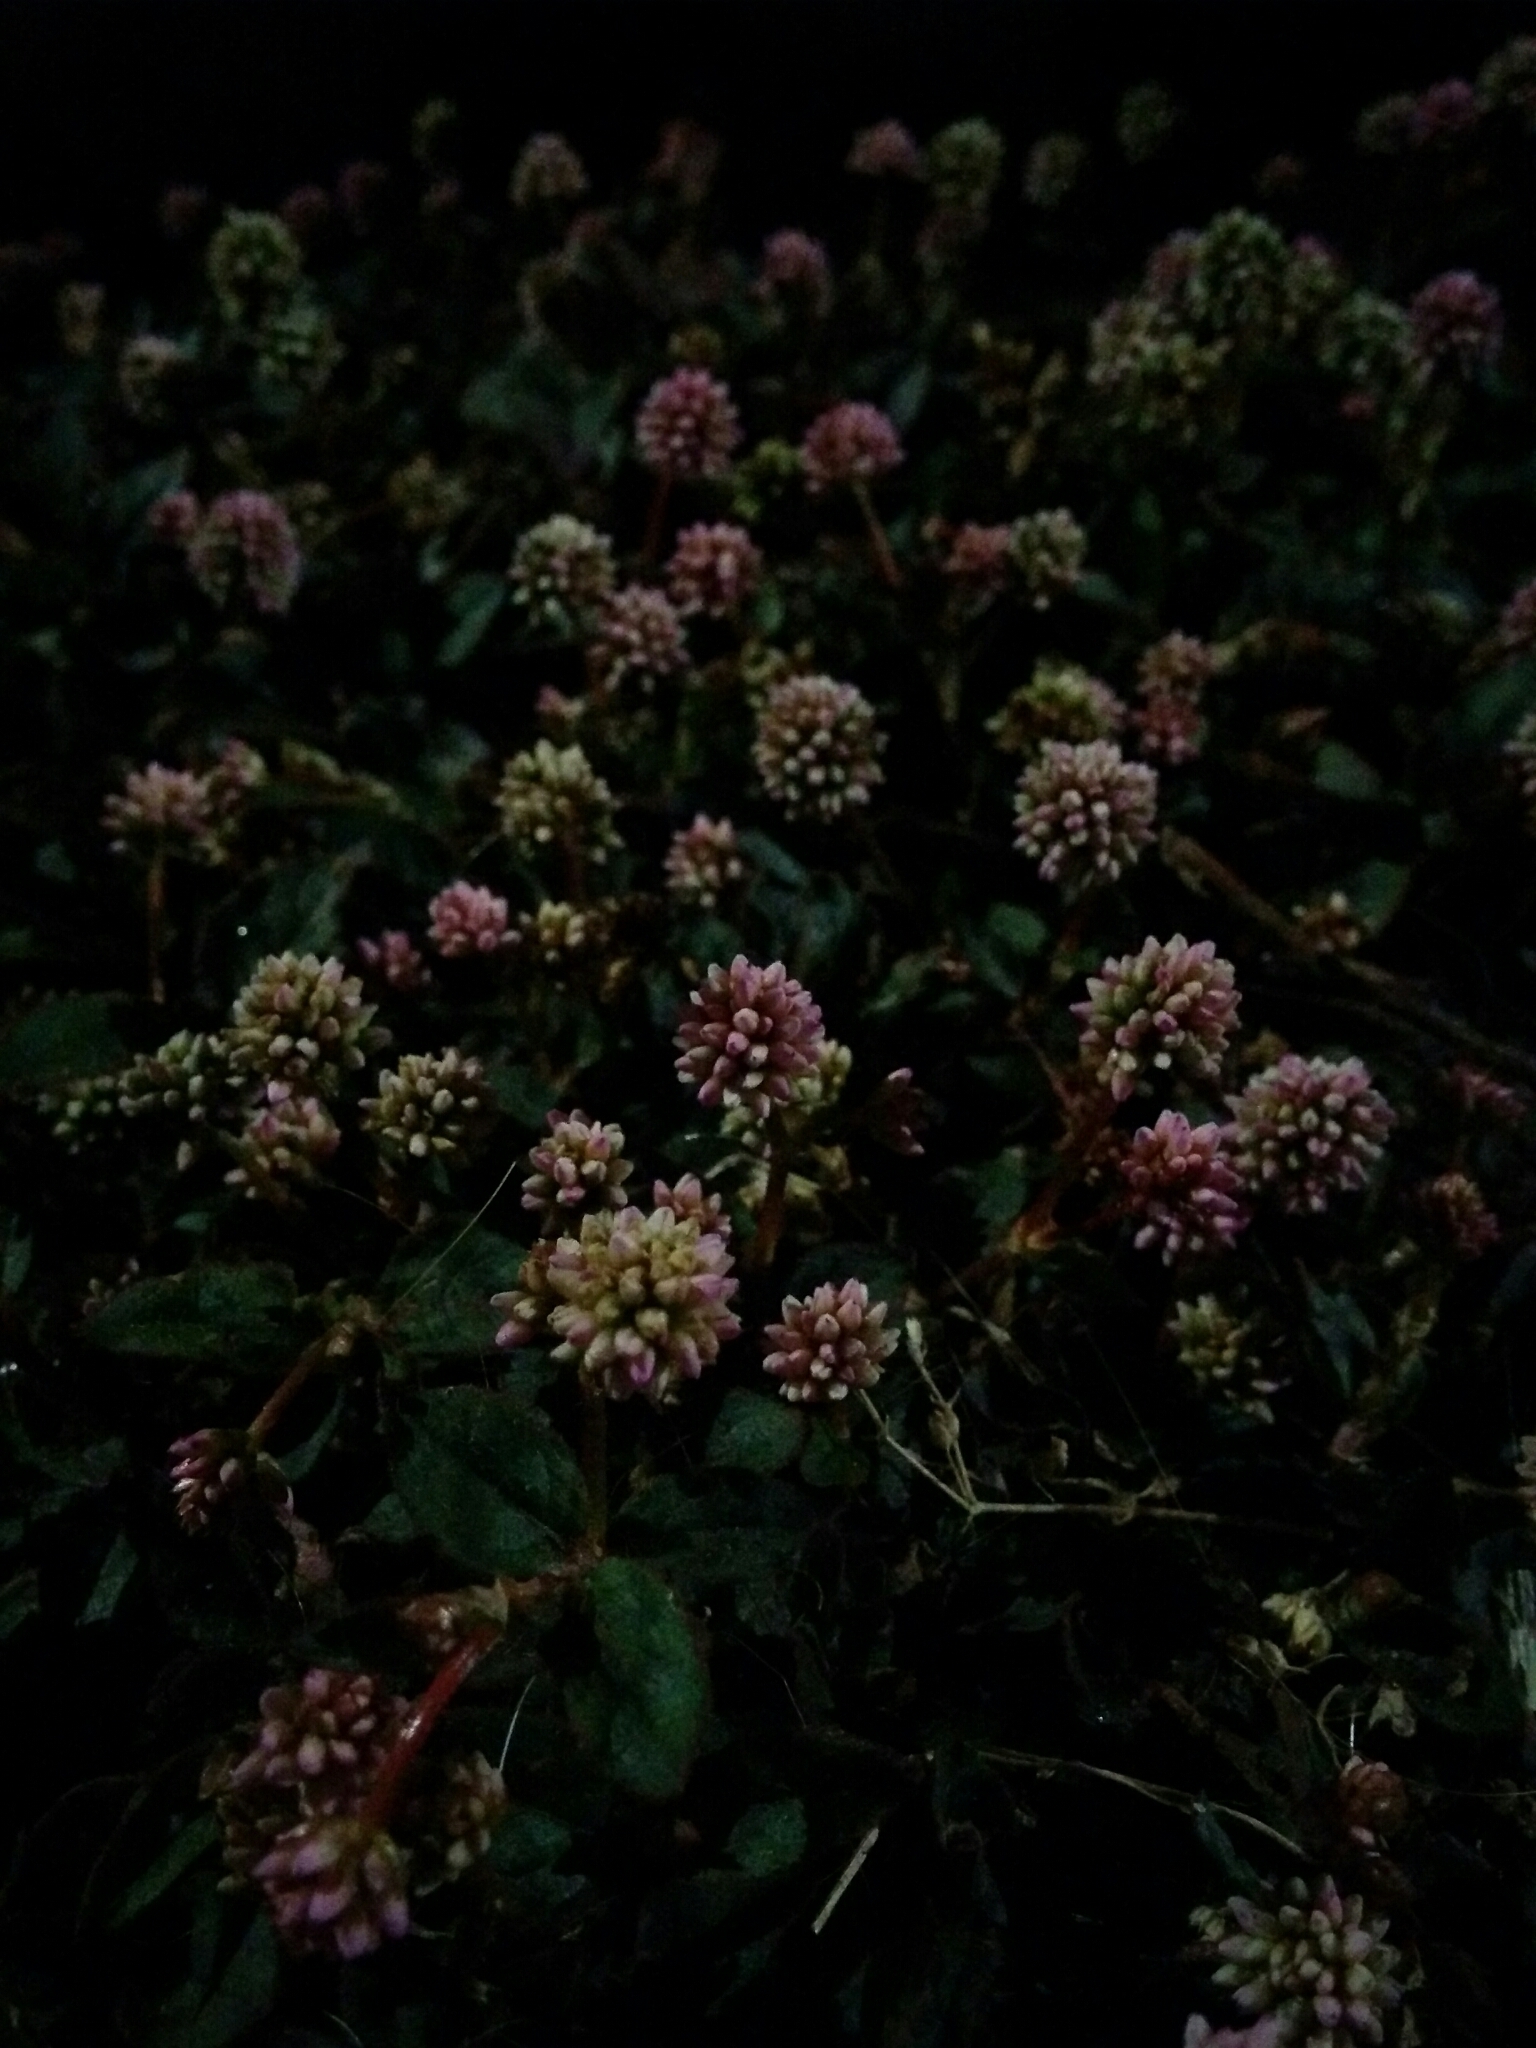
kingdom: Plantae
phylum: Tracheophyta
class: Magnoliopsida
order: Caryophyllales
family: Polygonaceae
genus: Persicaria
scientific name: Persicaria capitata
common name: Pinkhead smartweed
